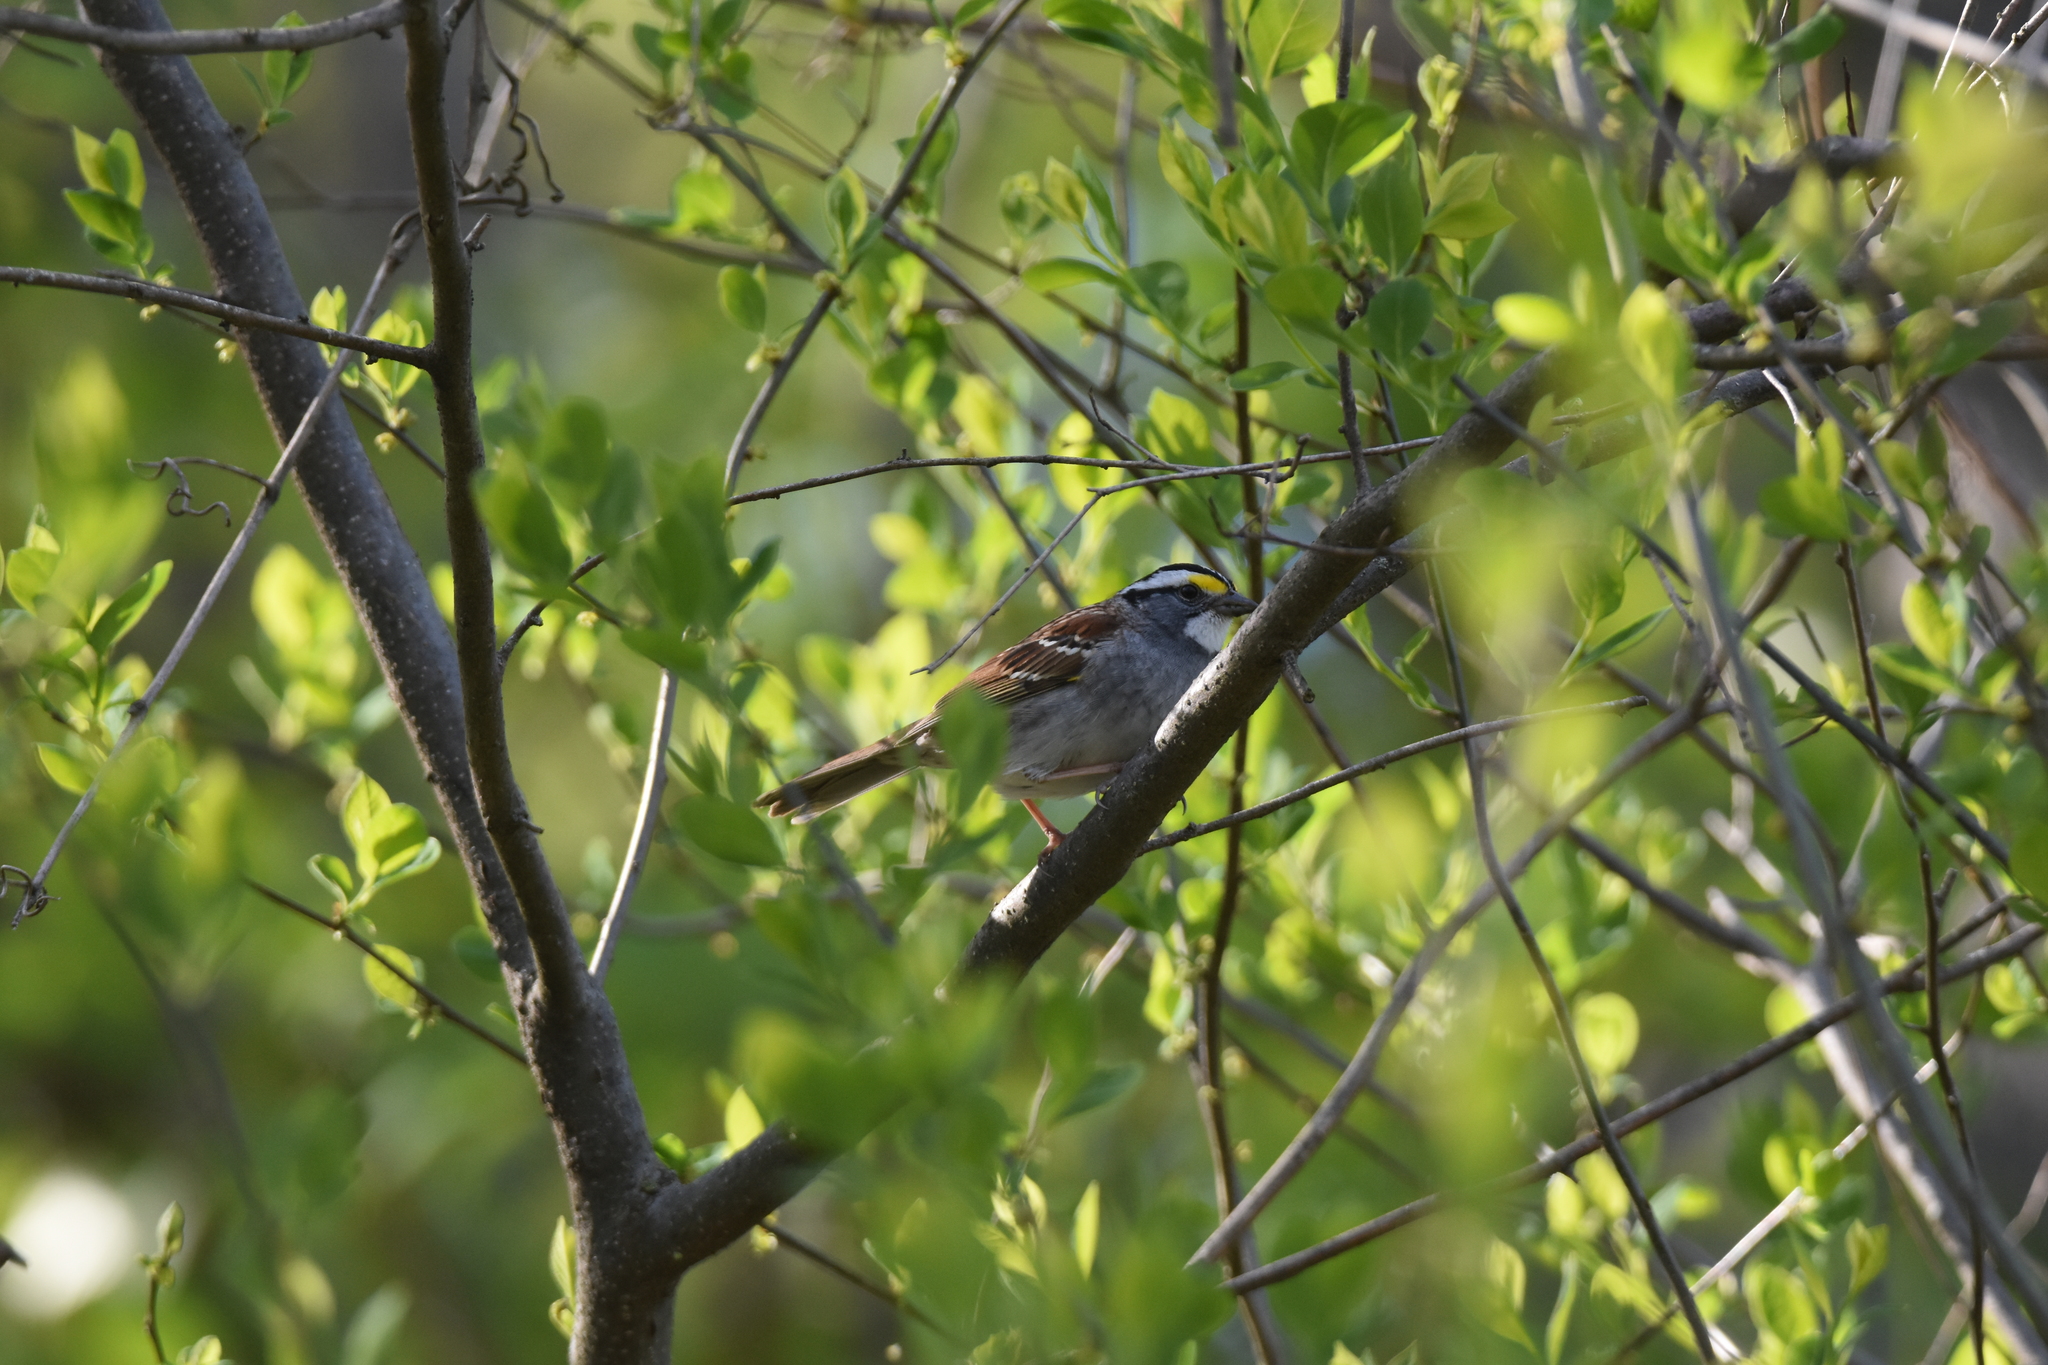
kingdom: Animalia
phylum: Chordata
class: Aves
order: Passeriformes
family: Passerellidae
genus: Zonotrichia
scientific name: Zonotrichia albicollis
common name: White-throated sparrow
